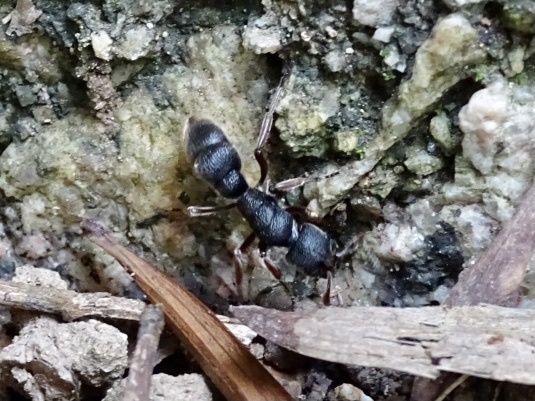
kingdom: Animalia
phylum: Arthropoda
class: Insecta
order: Hymenoptera
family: Formicidae
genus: Pseudoneoponera
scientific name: Pseudoneoponera rufipes
